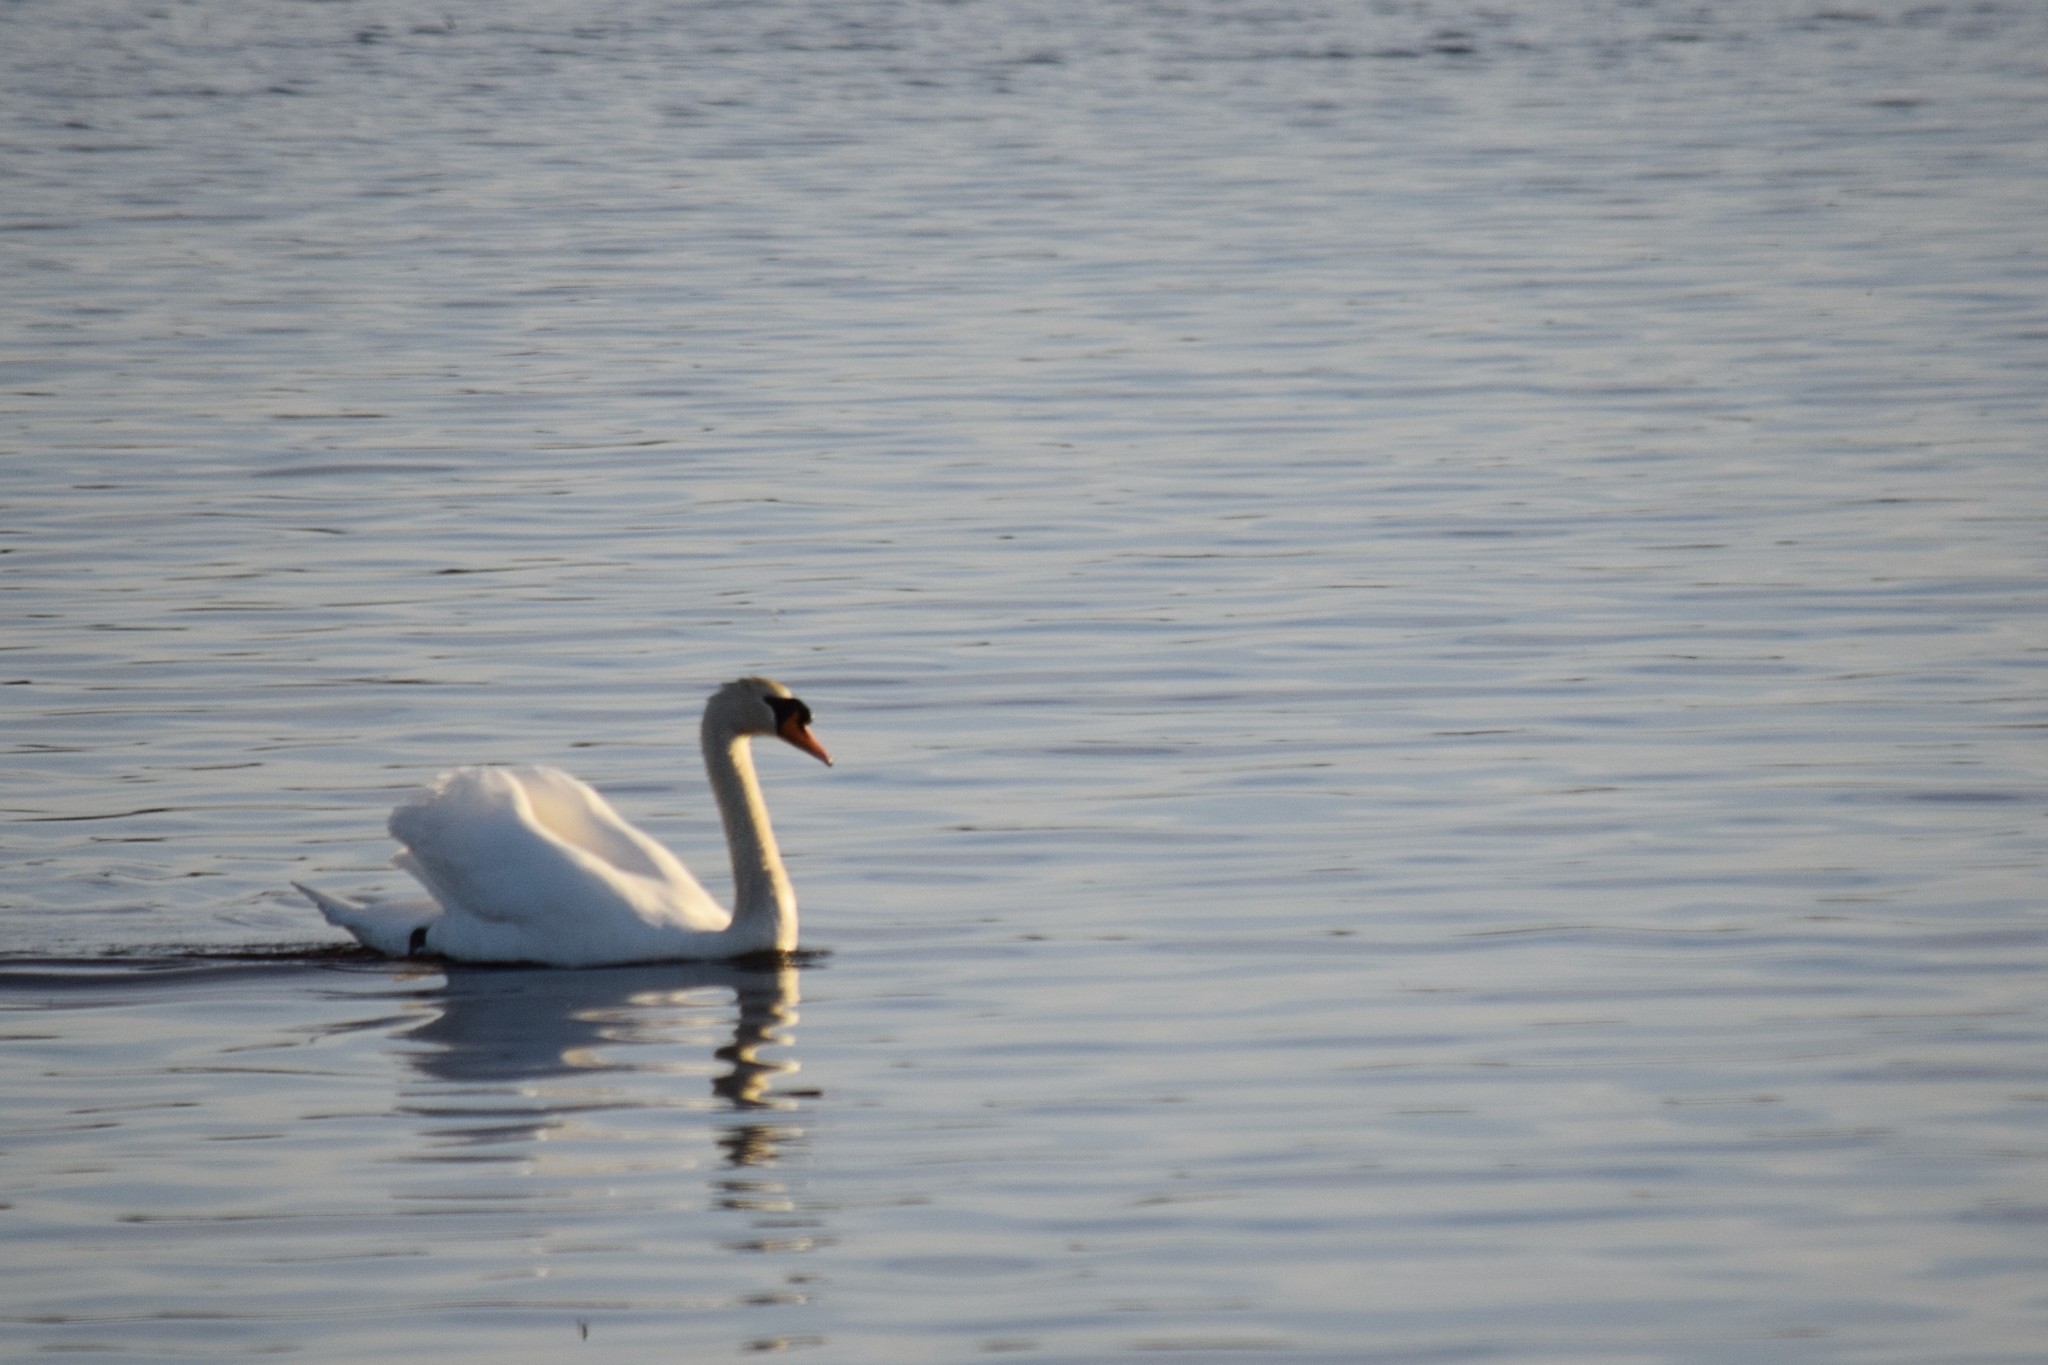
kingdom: Animalia
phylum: Chordata
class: Aves
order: Anseriformes
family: Anatidae
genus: Cygnus
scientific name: Cygnus olor
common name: Mute swan
